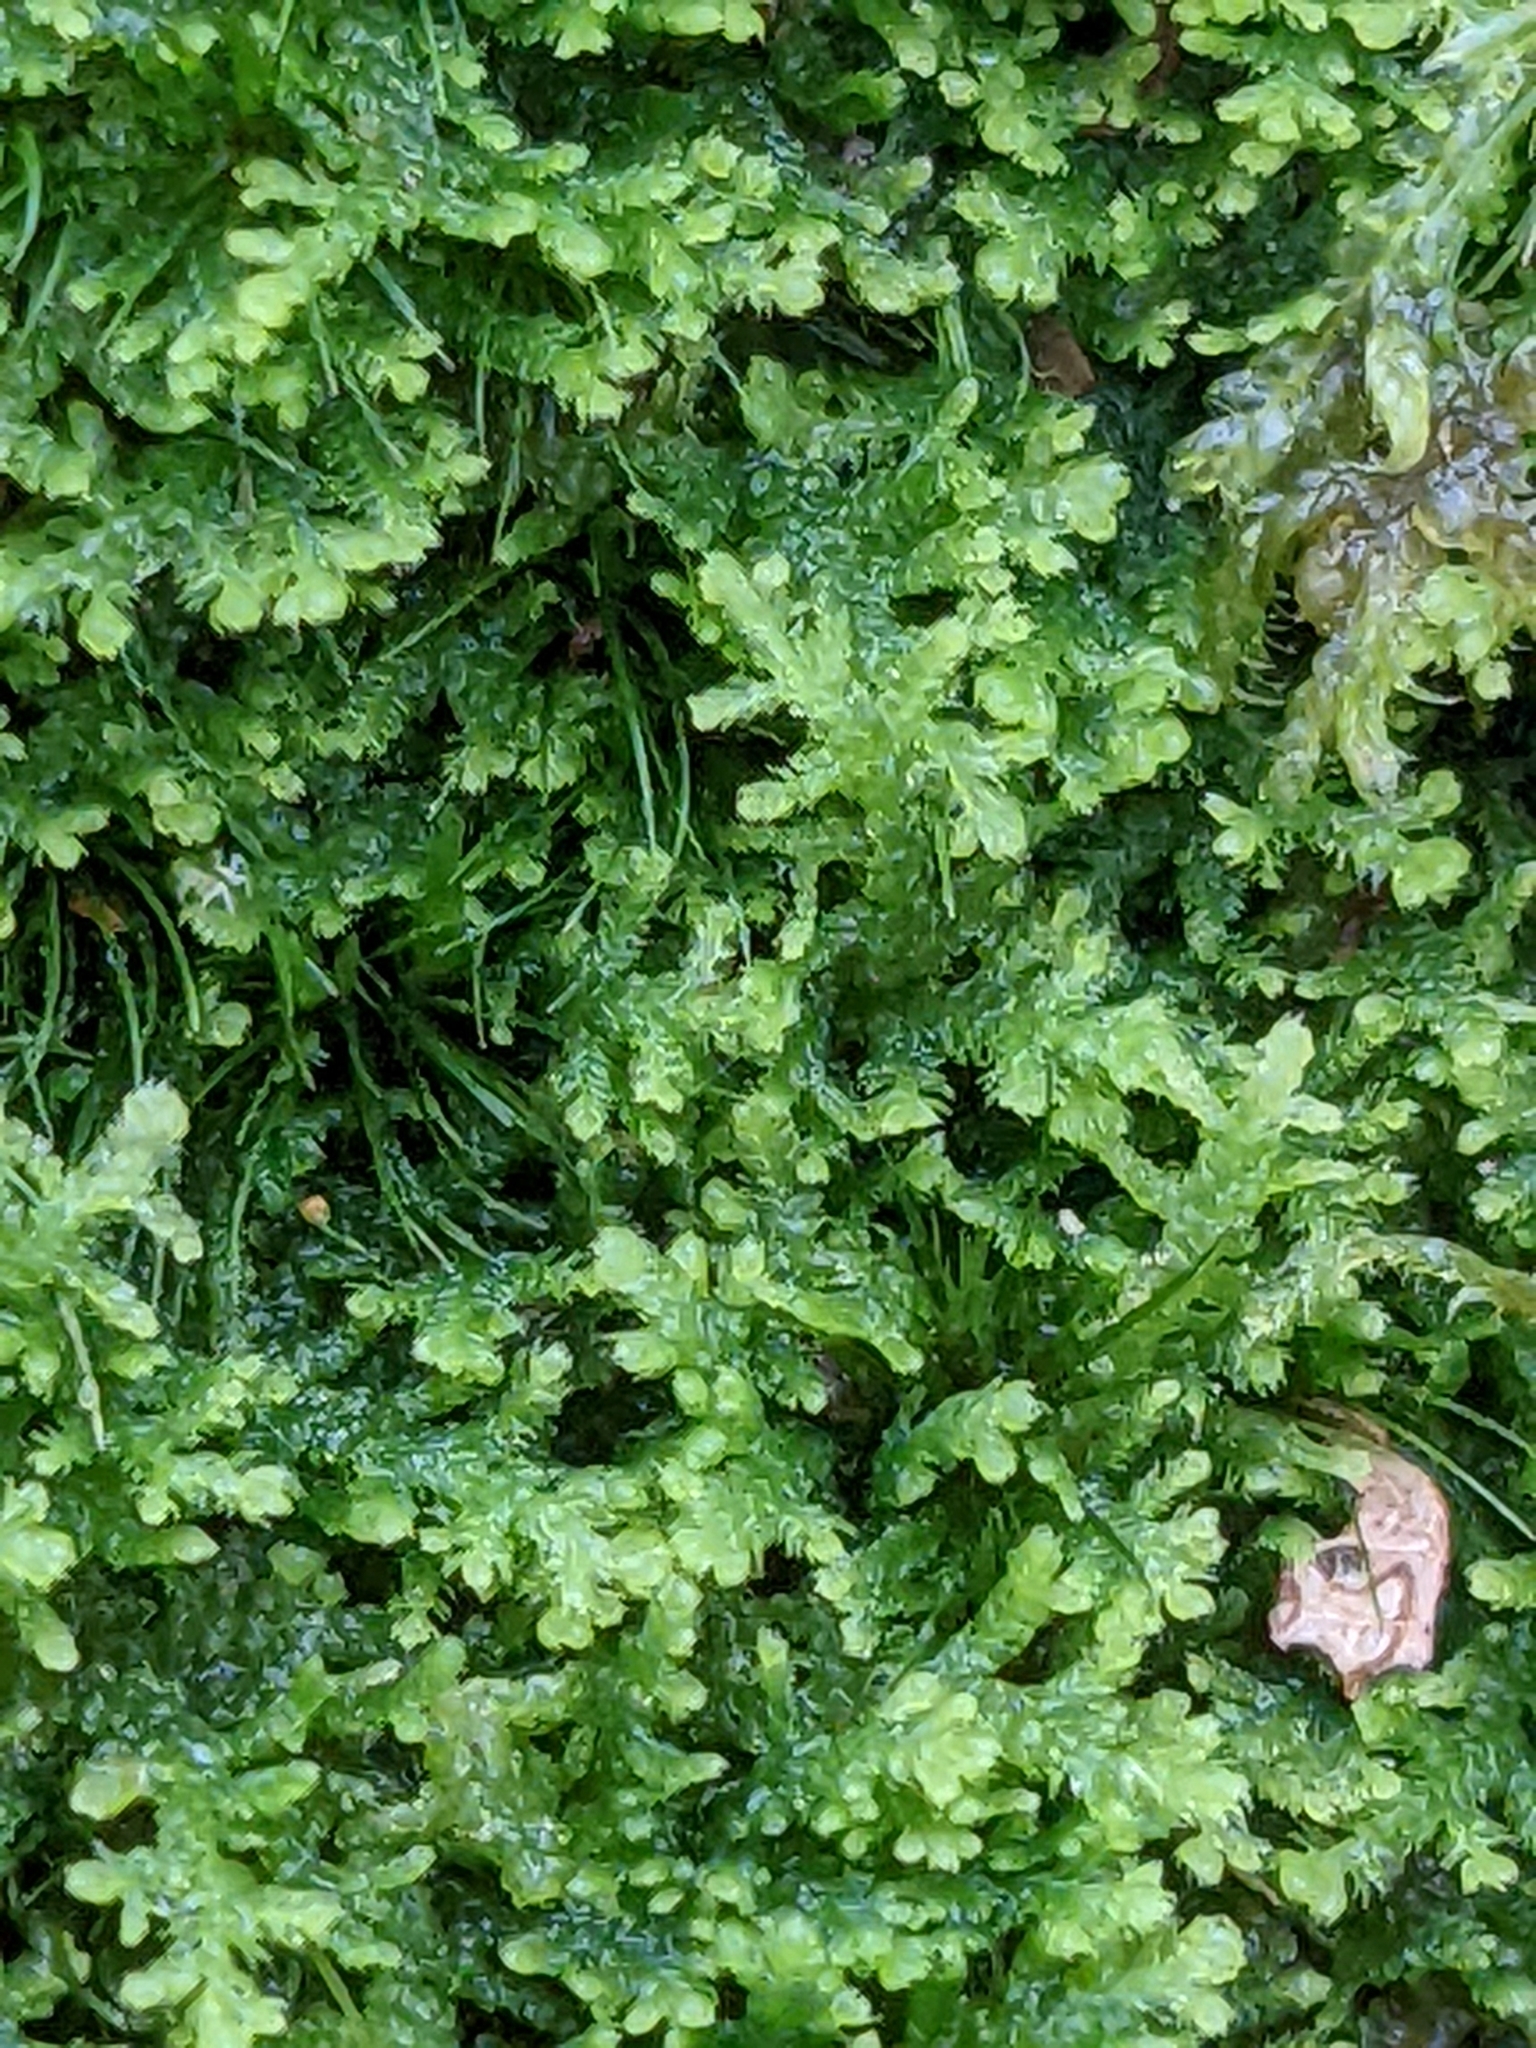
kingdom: Plantae
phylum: Marchantiophyta
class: Jungermanniopsida
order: Jungermanniales
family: Lepidoziaceae
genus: Lepidozia
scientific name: Lepidozia reptans
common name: Creeping fingerwort
